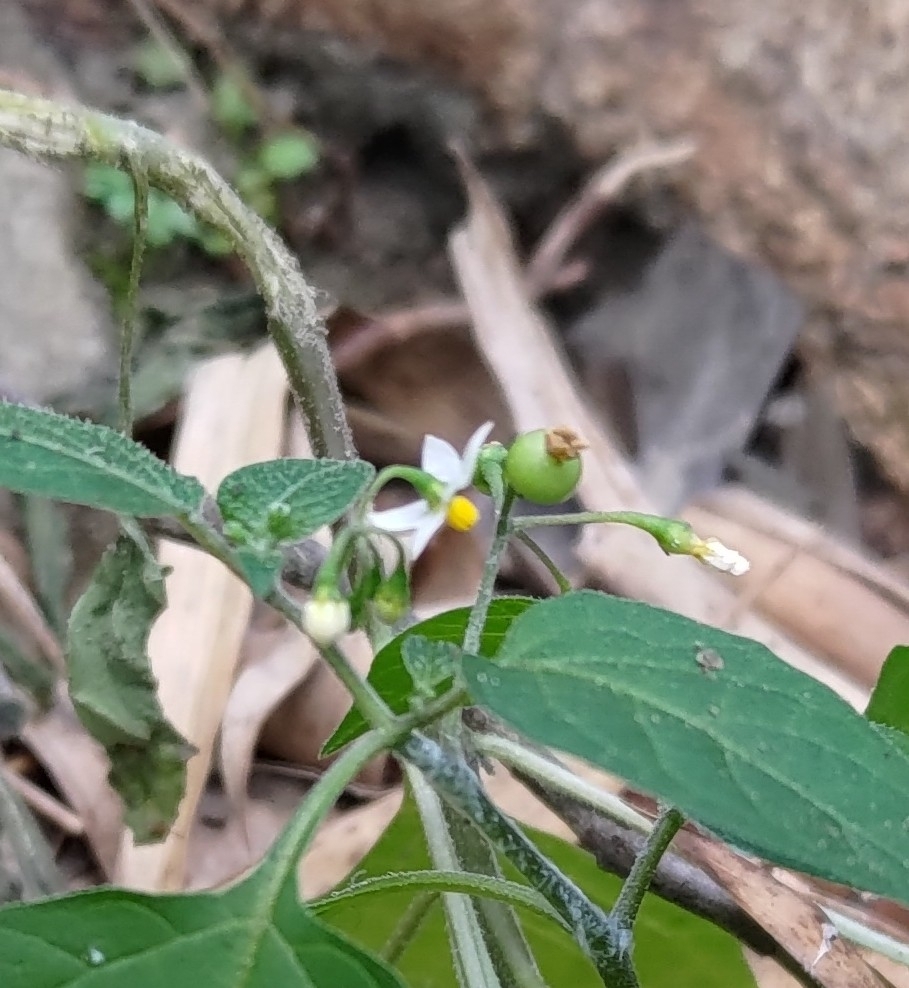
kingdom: Plantae
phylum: Tracheophyta
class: Magnoliopsida
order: Solanales
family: Solanaceae
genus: Solanum
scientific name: Solanum americanum
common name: American black nightshade
